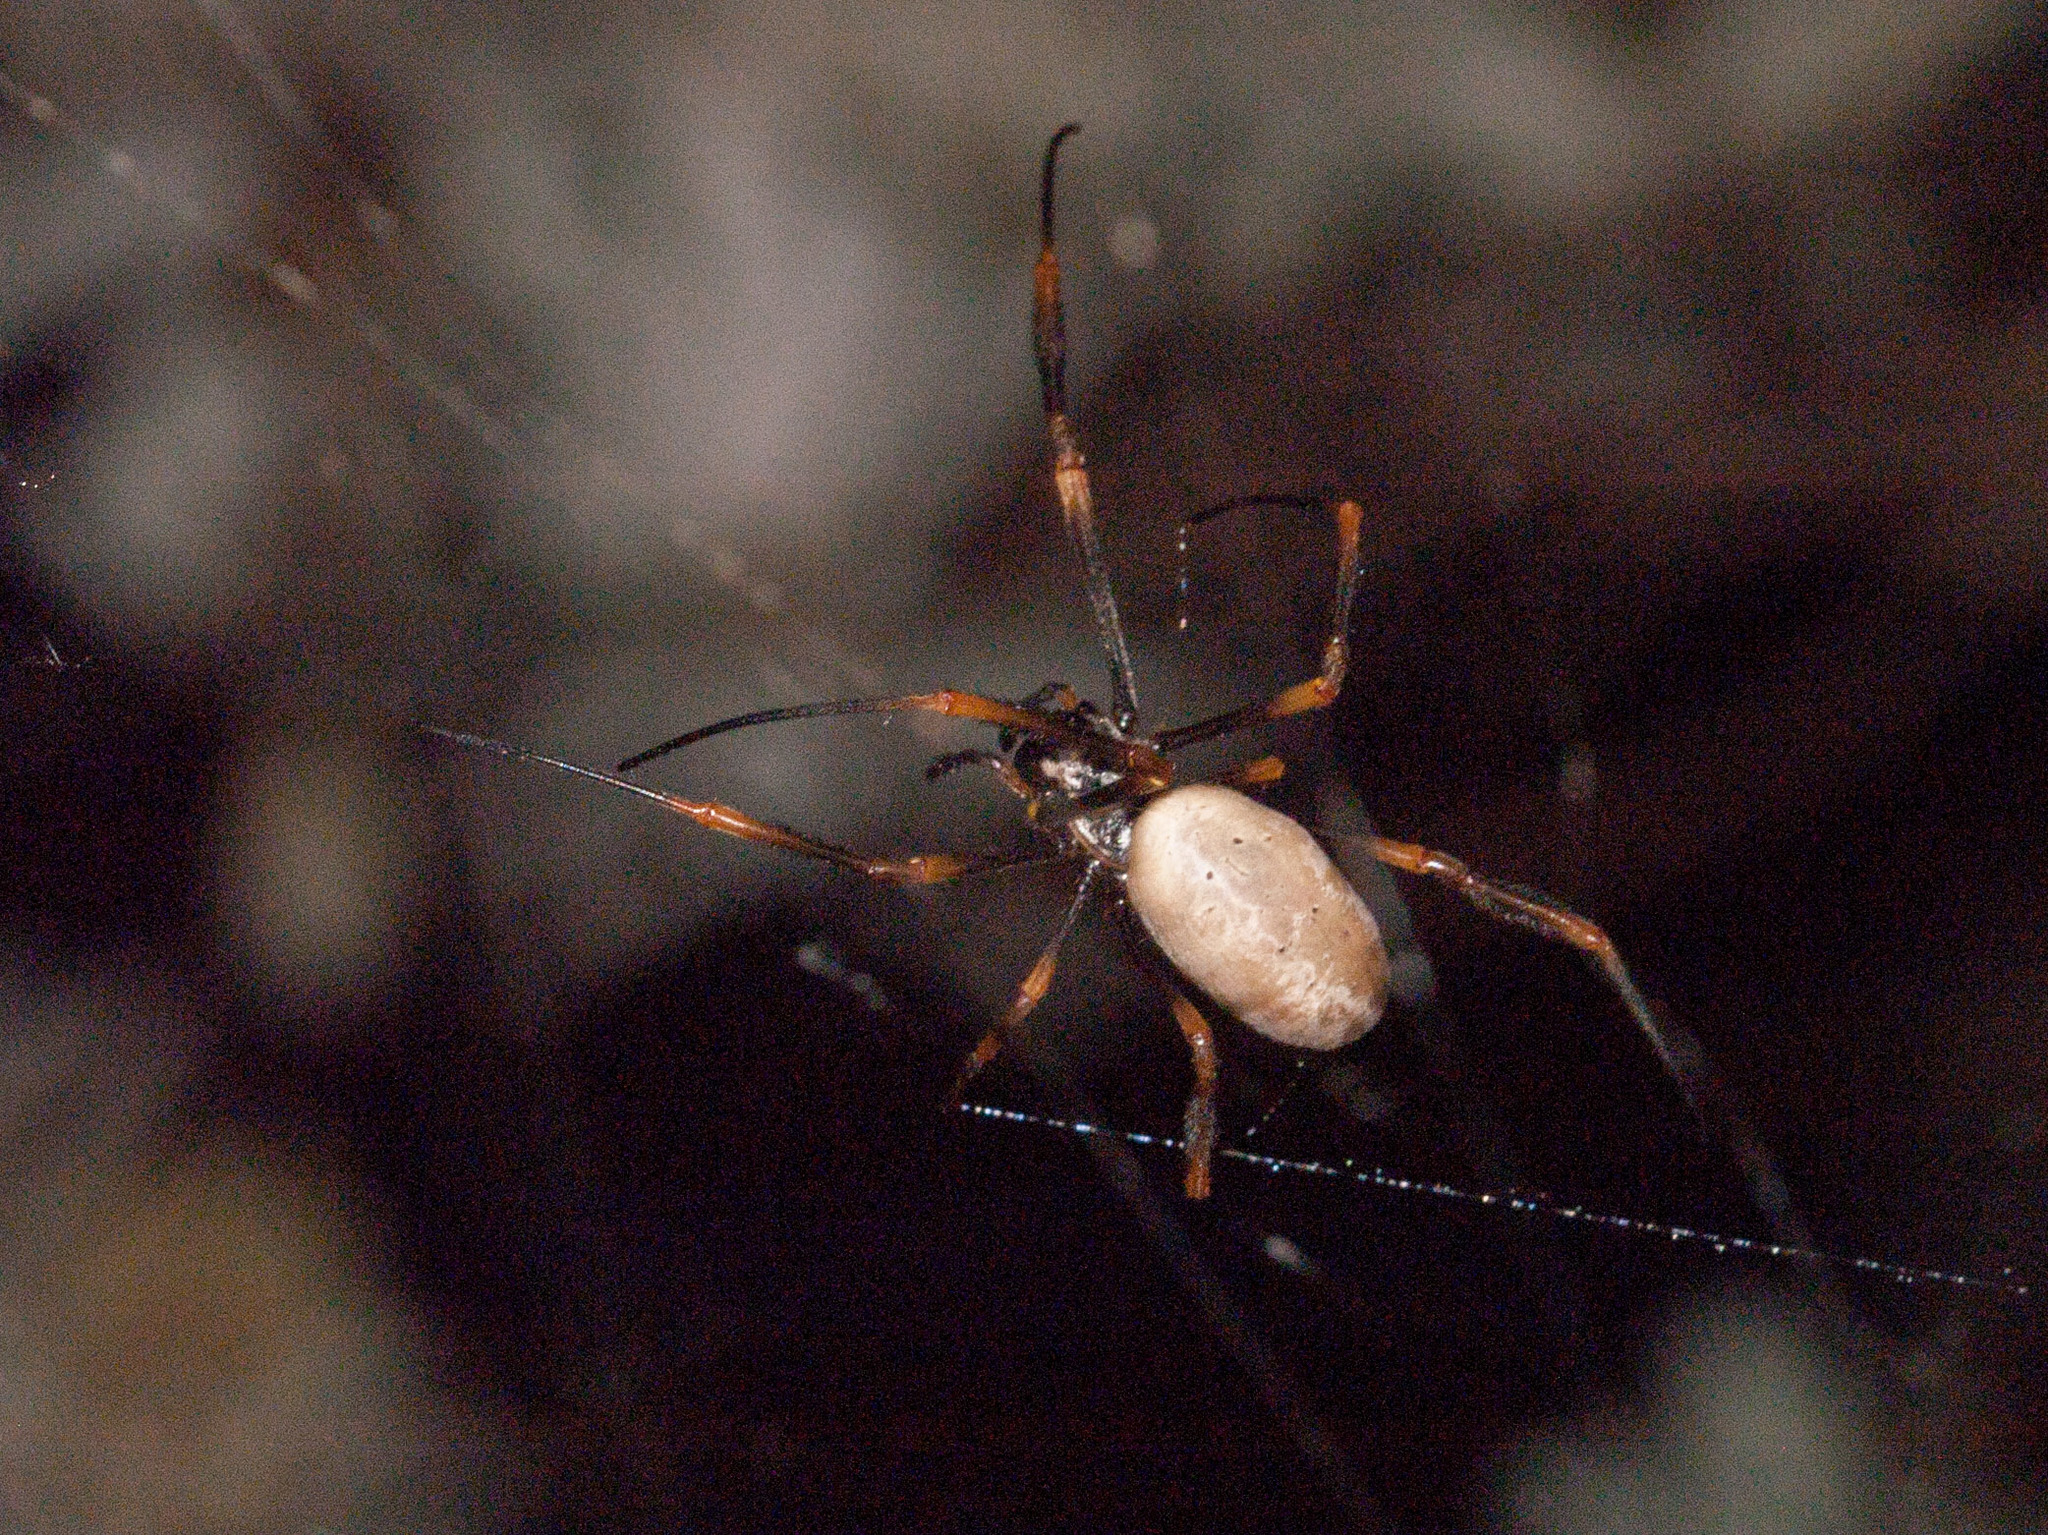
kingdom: Animalia
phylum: Arthropoda
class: Arachnida
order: Araneae
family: Araneidae
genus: Trichonephila
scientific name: Trichonephila plumipes
